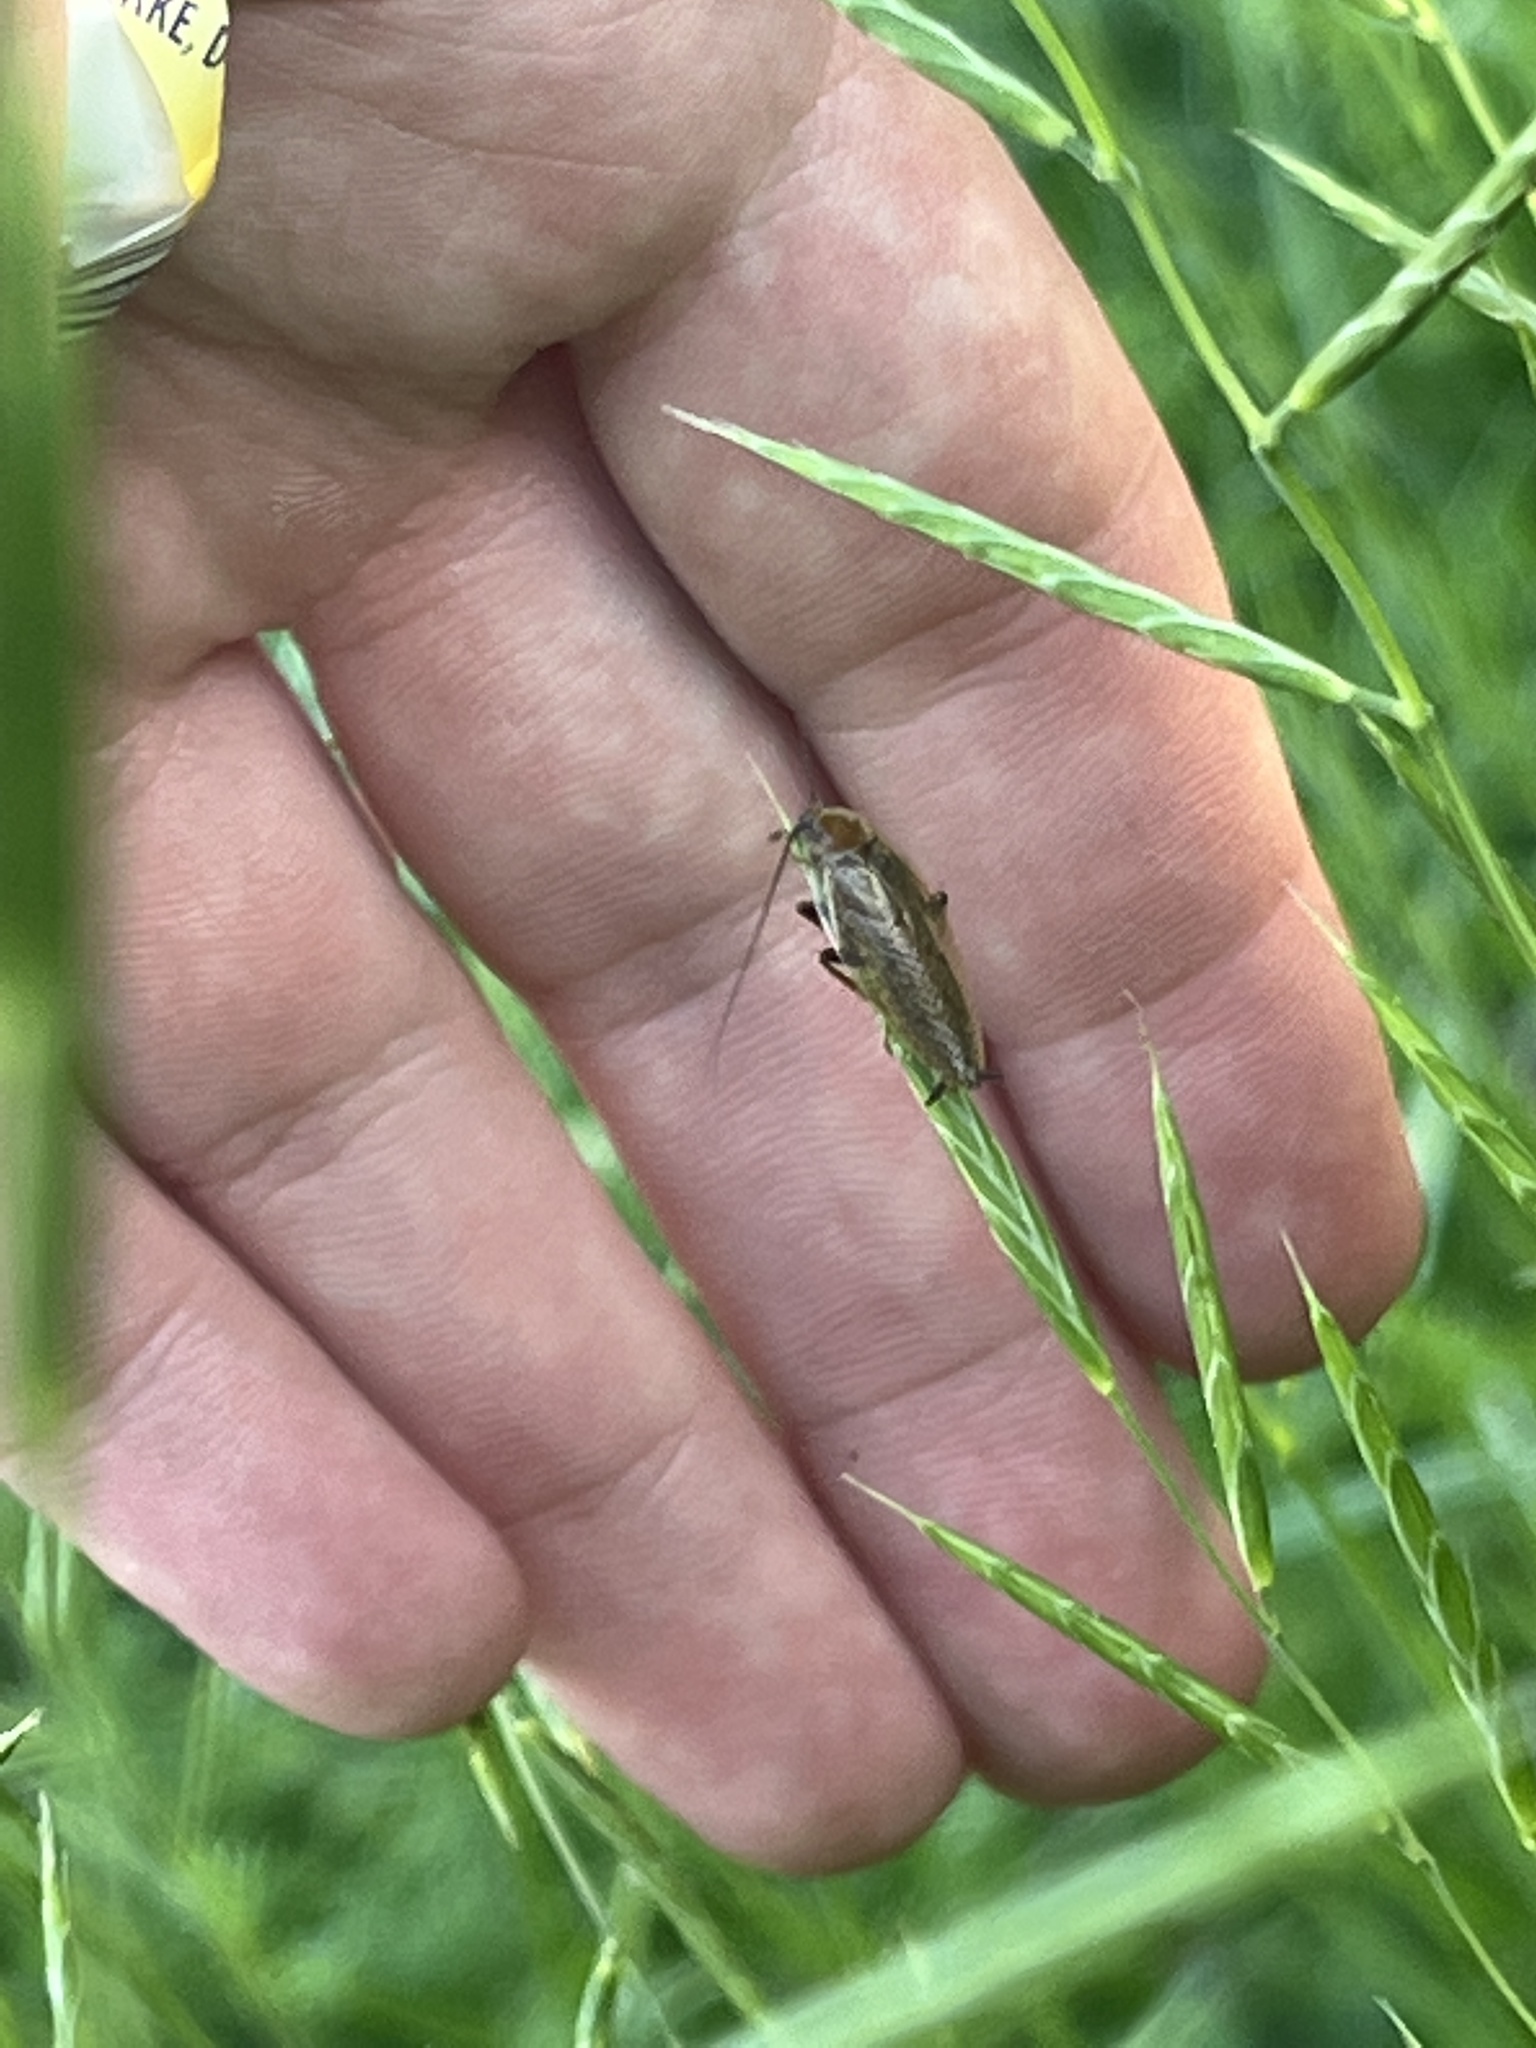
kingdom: Animalia
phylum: Arthropoda
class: Insecta
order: Blattodea
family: Ectobiidae
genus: Ectobius
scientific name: Ectobius vittiventris
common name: Garden cockroach
